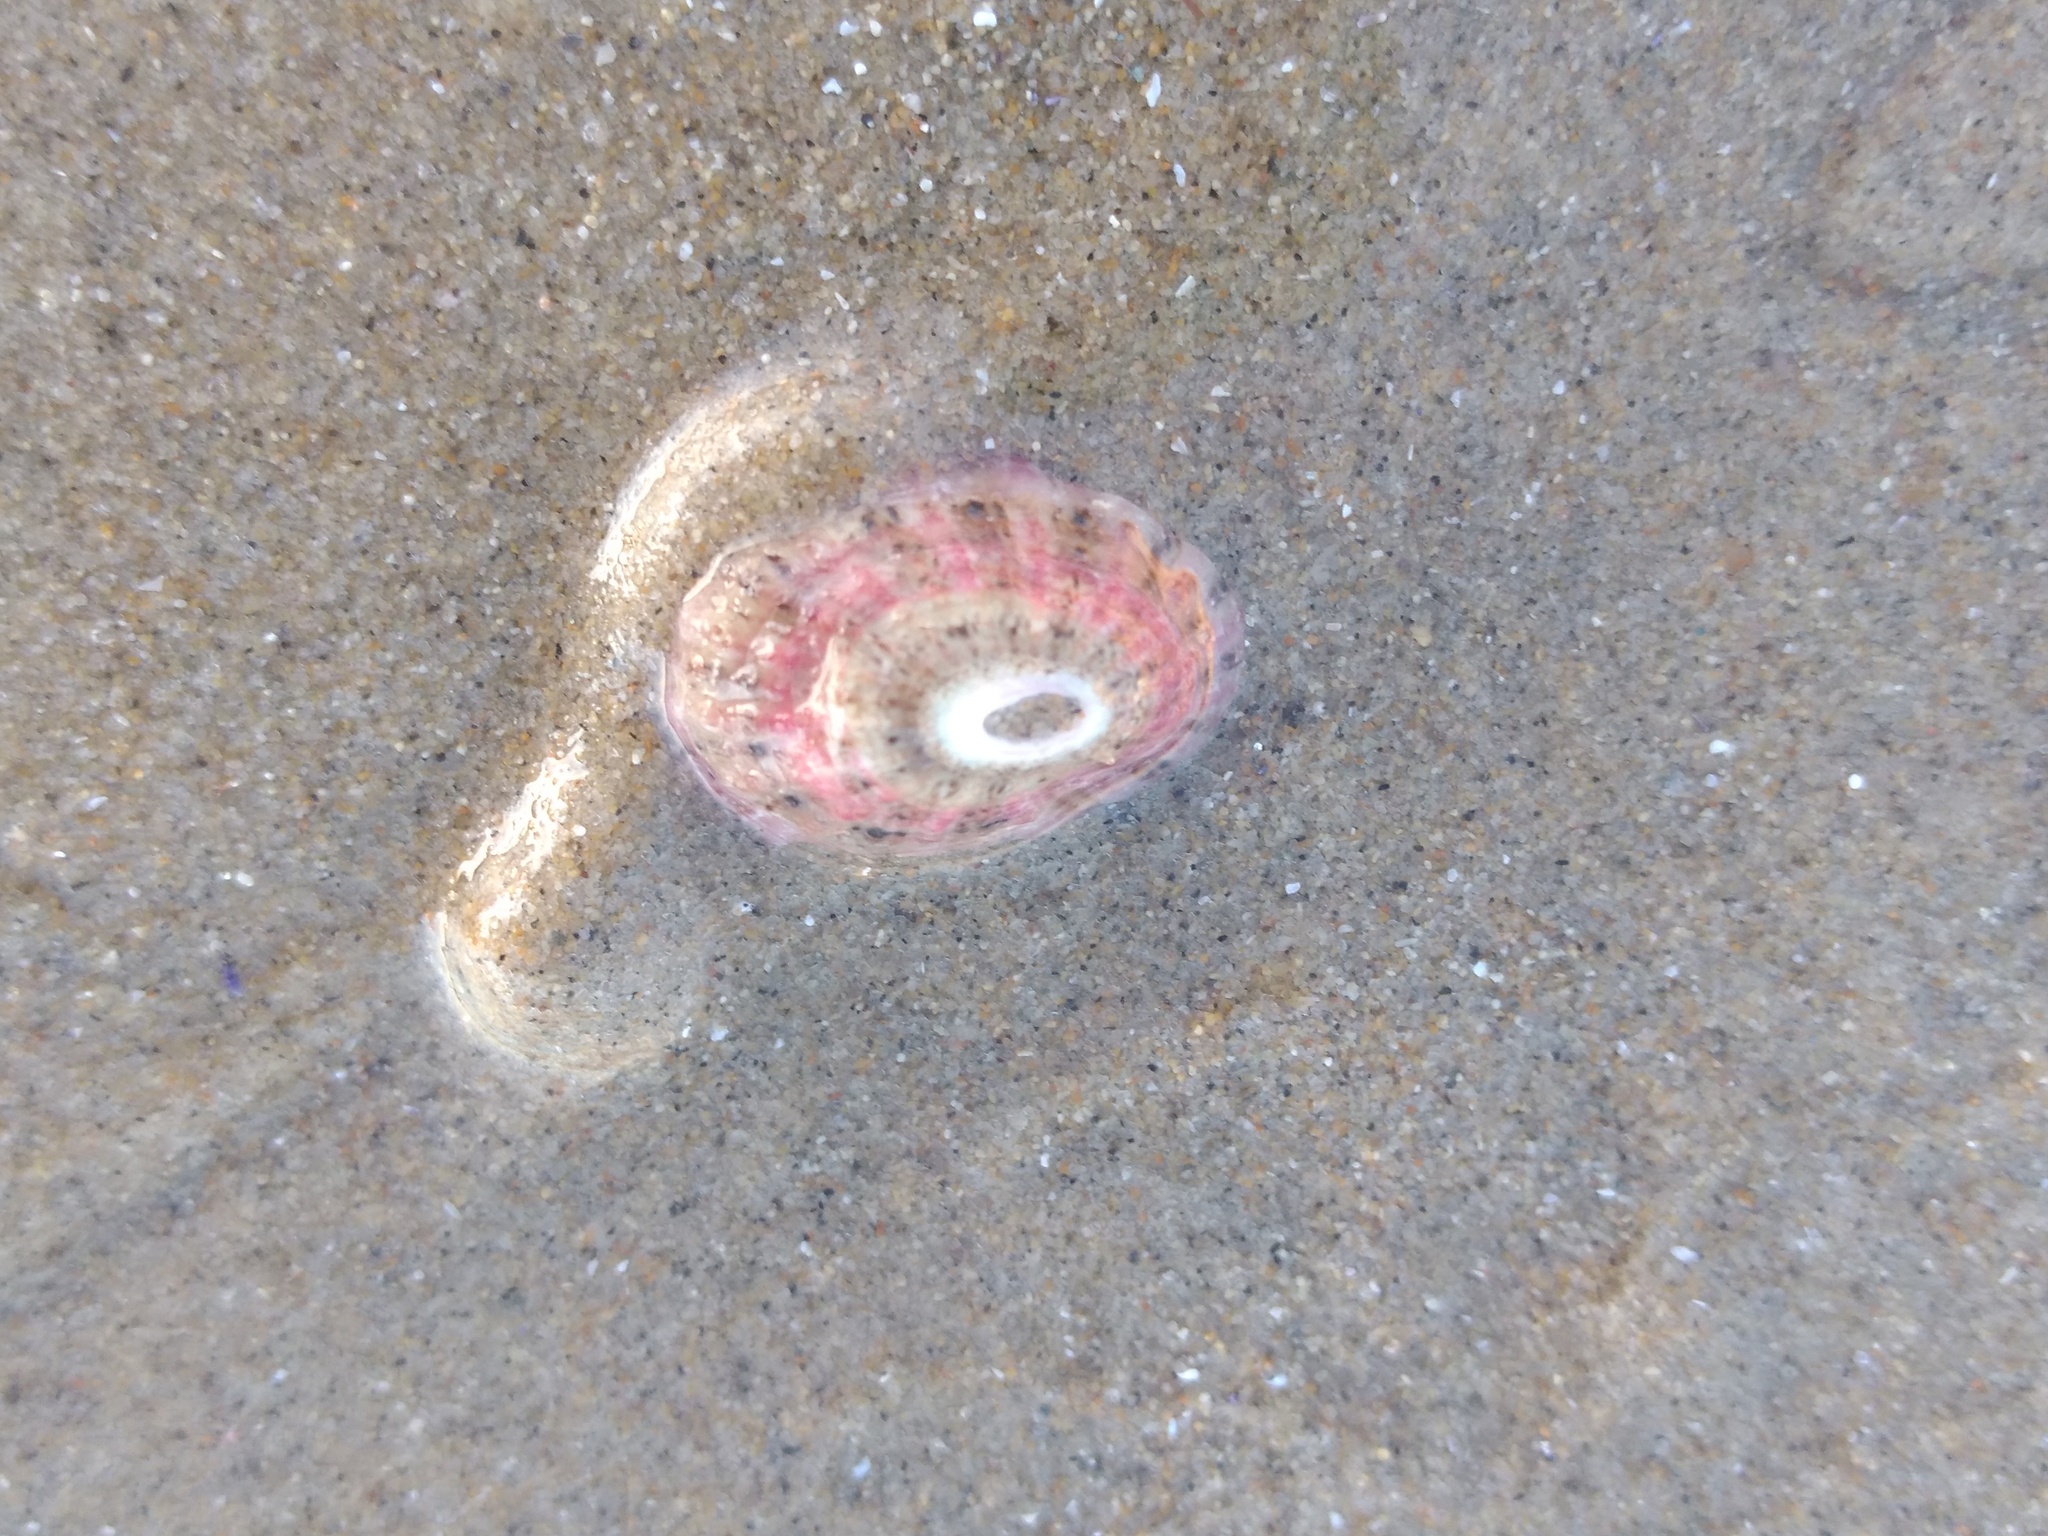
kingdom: Animalia
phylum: Mollusca
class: Gastropoda
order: Lepetellida
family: Fissurellidae
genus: Fissurella
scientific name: Fissurella volcano
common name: Volcano keyhole limpet
